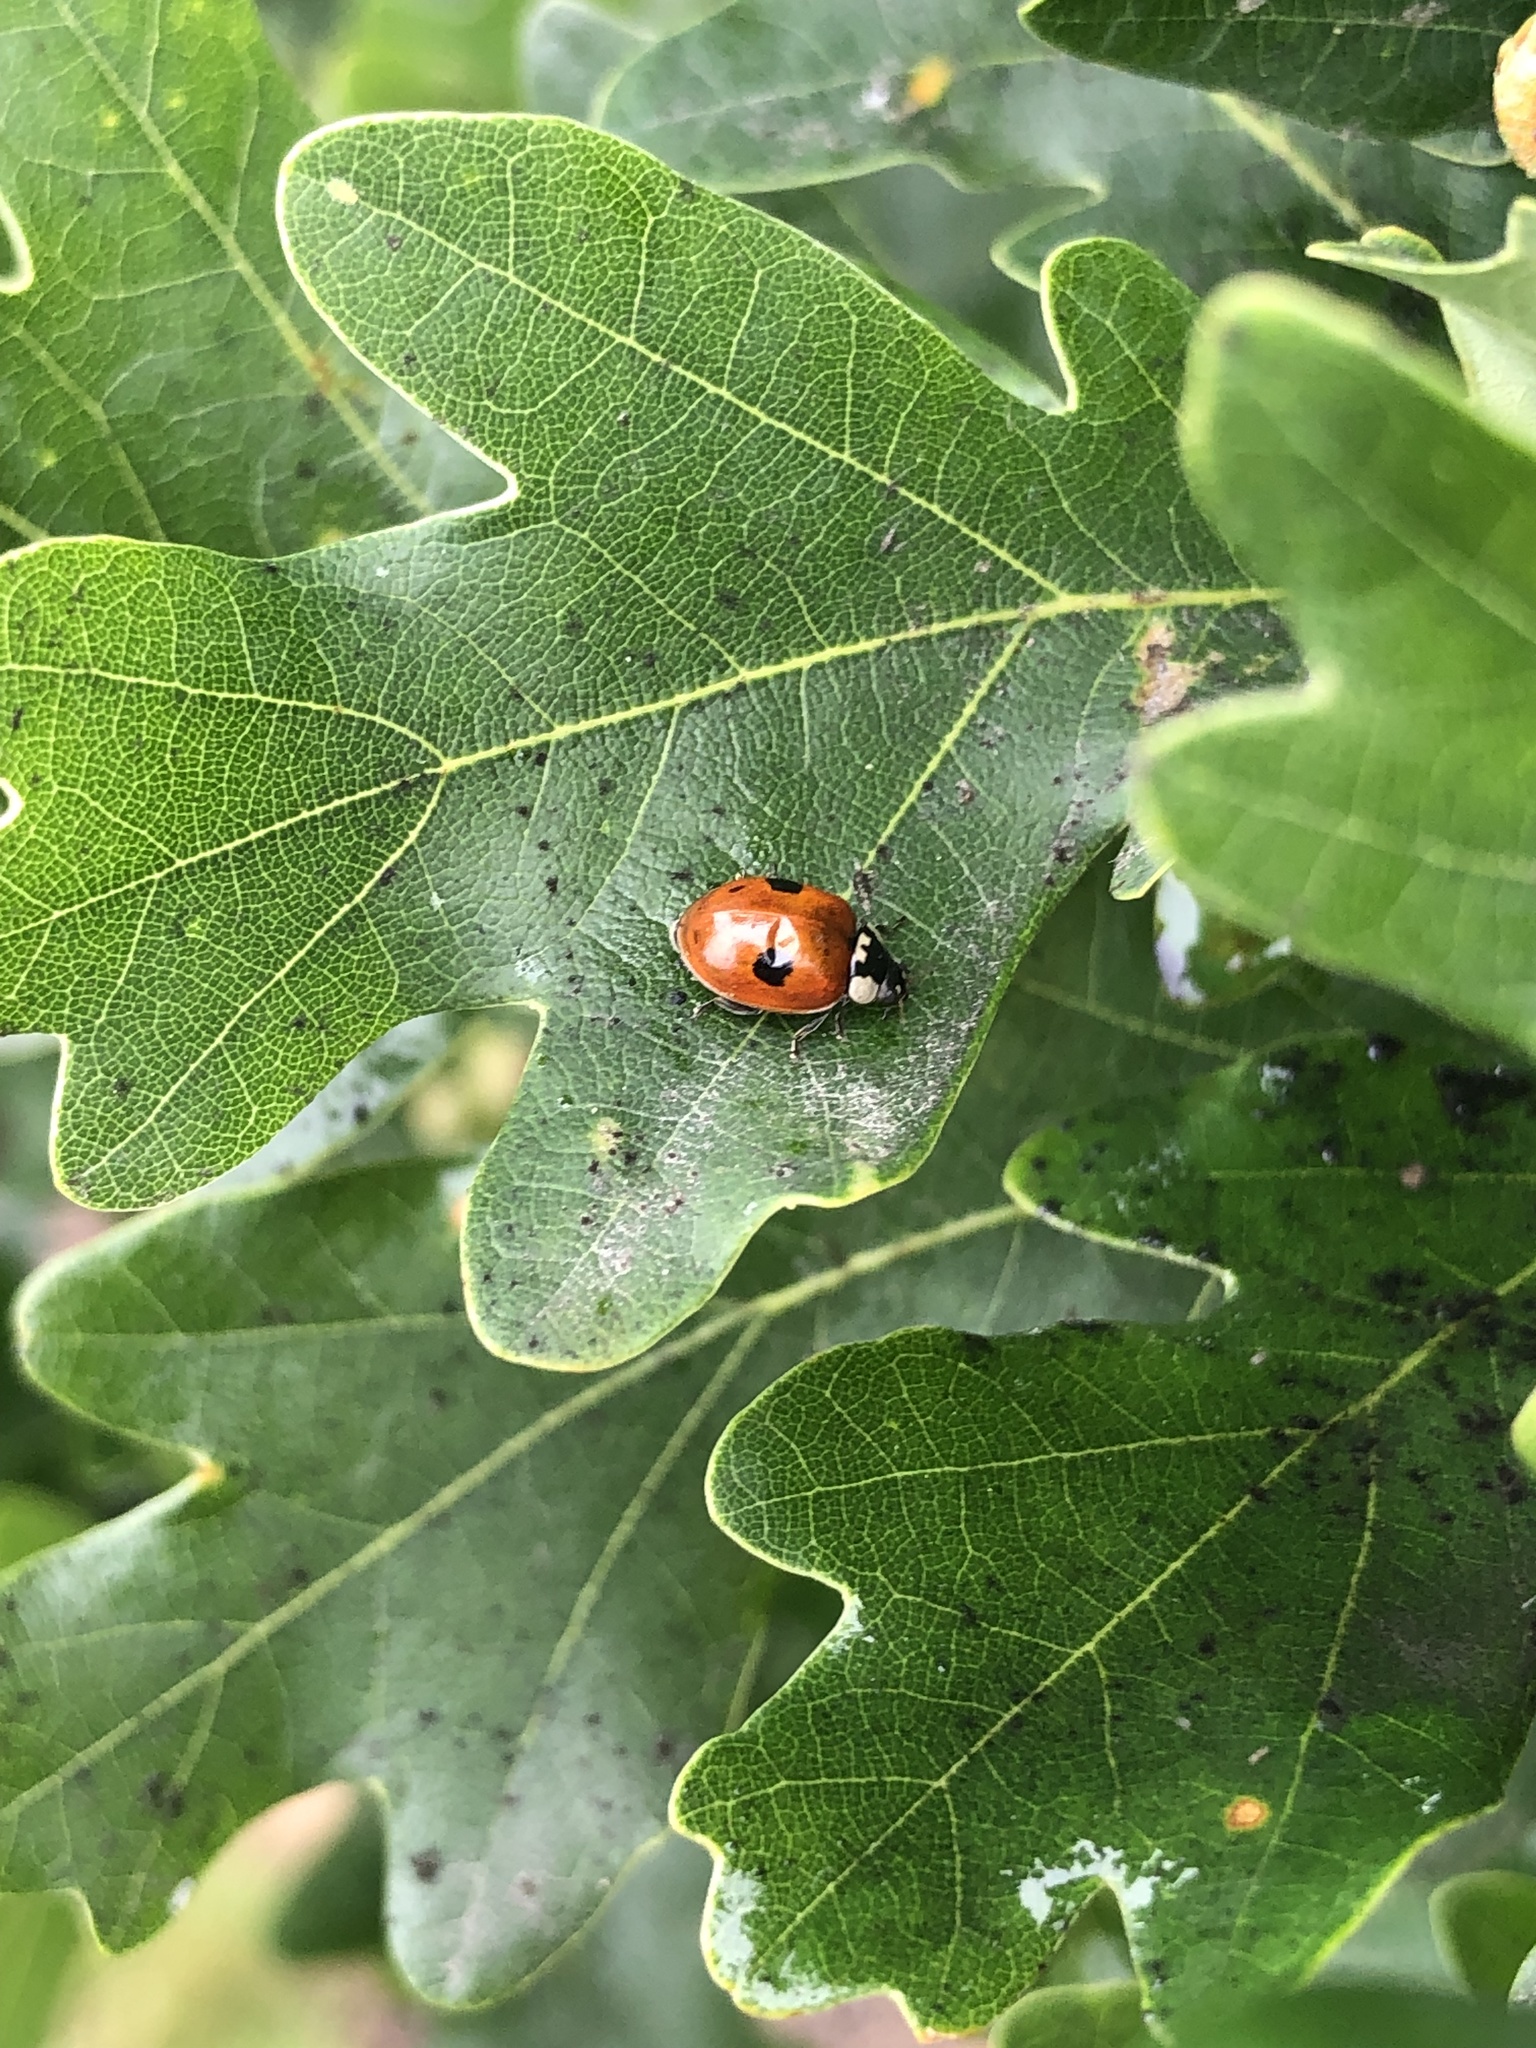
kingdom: Animalia
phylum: Arthropoda
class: Insecta
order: Coleoptera
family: Coccinellidae
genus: Adalia
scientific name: Adalia bipunctata
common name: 2-spot ladybird
